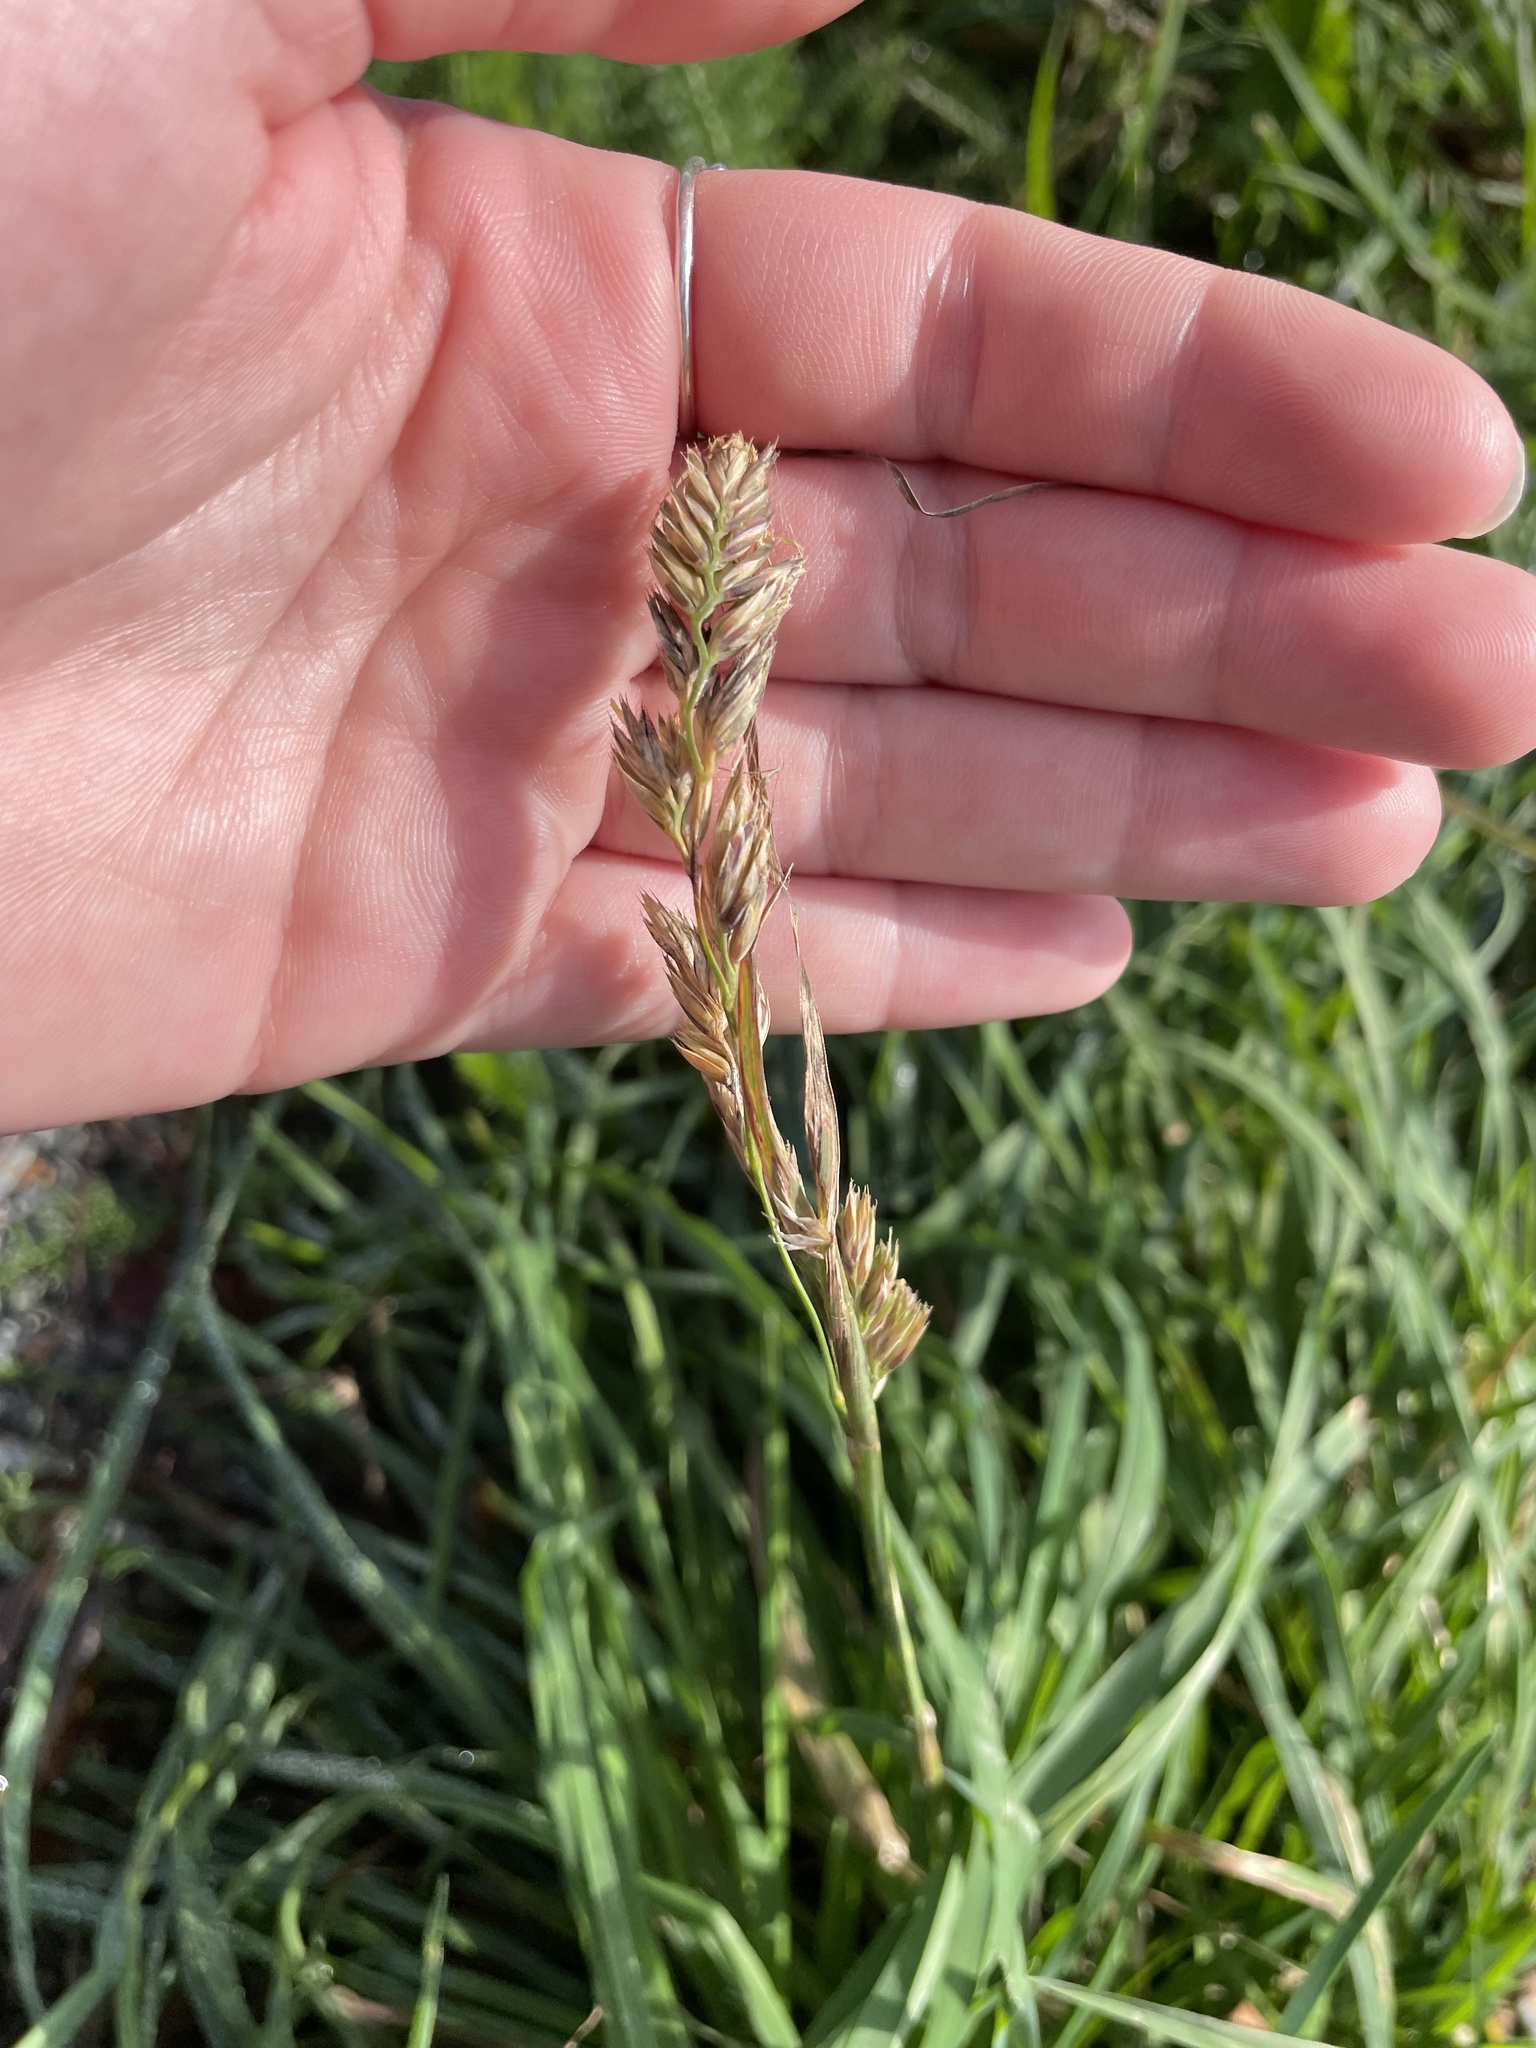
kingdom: Plantae
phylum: Tracheophyta
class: Liliopsida
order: Poales
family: Poaceae
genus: Dactylis
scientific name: Dactylis glomerata
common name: Orchardgrass
